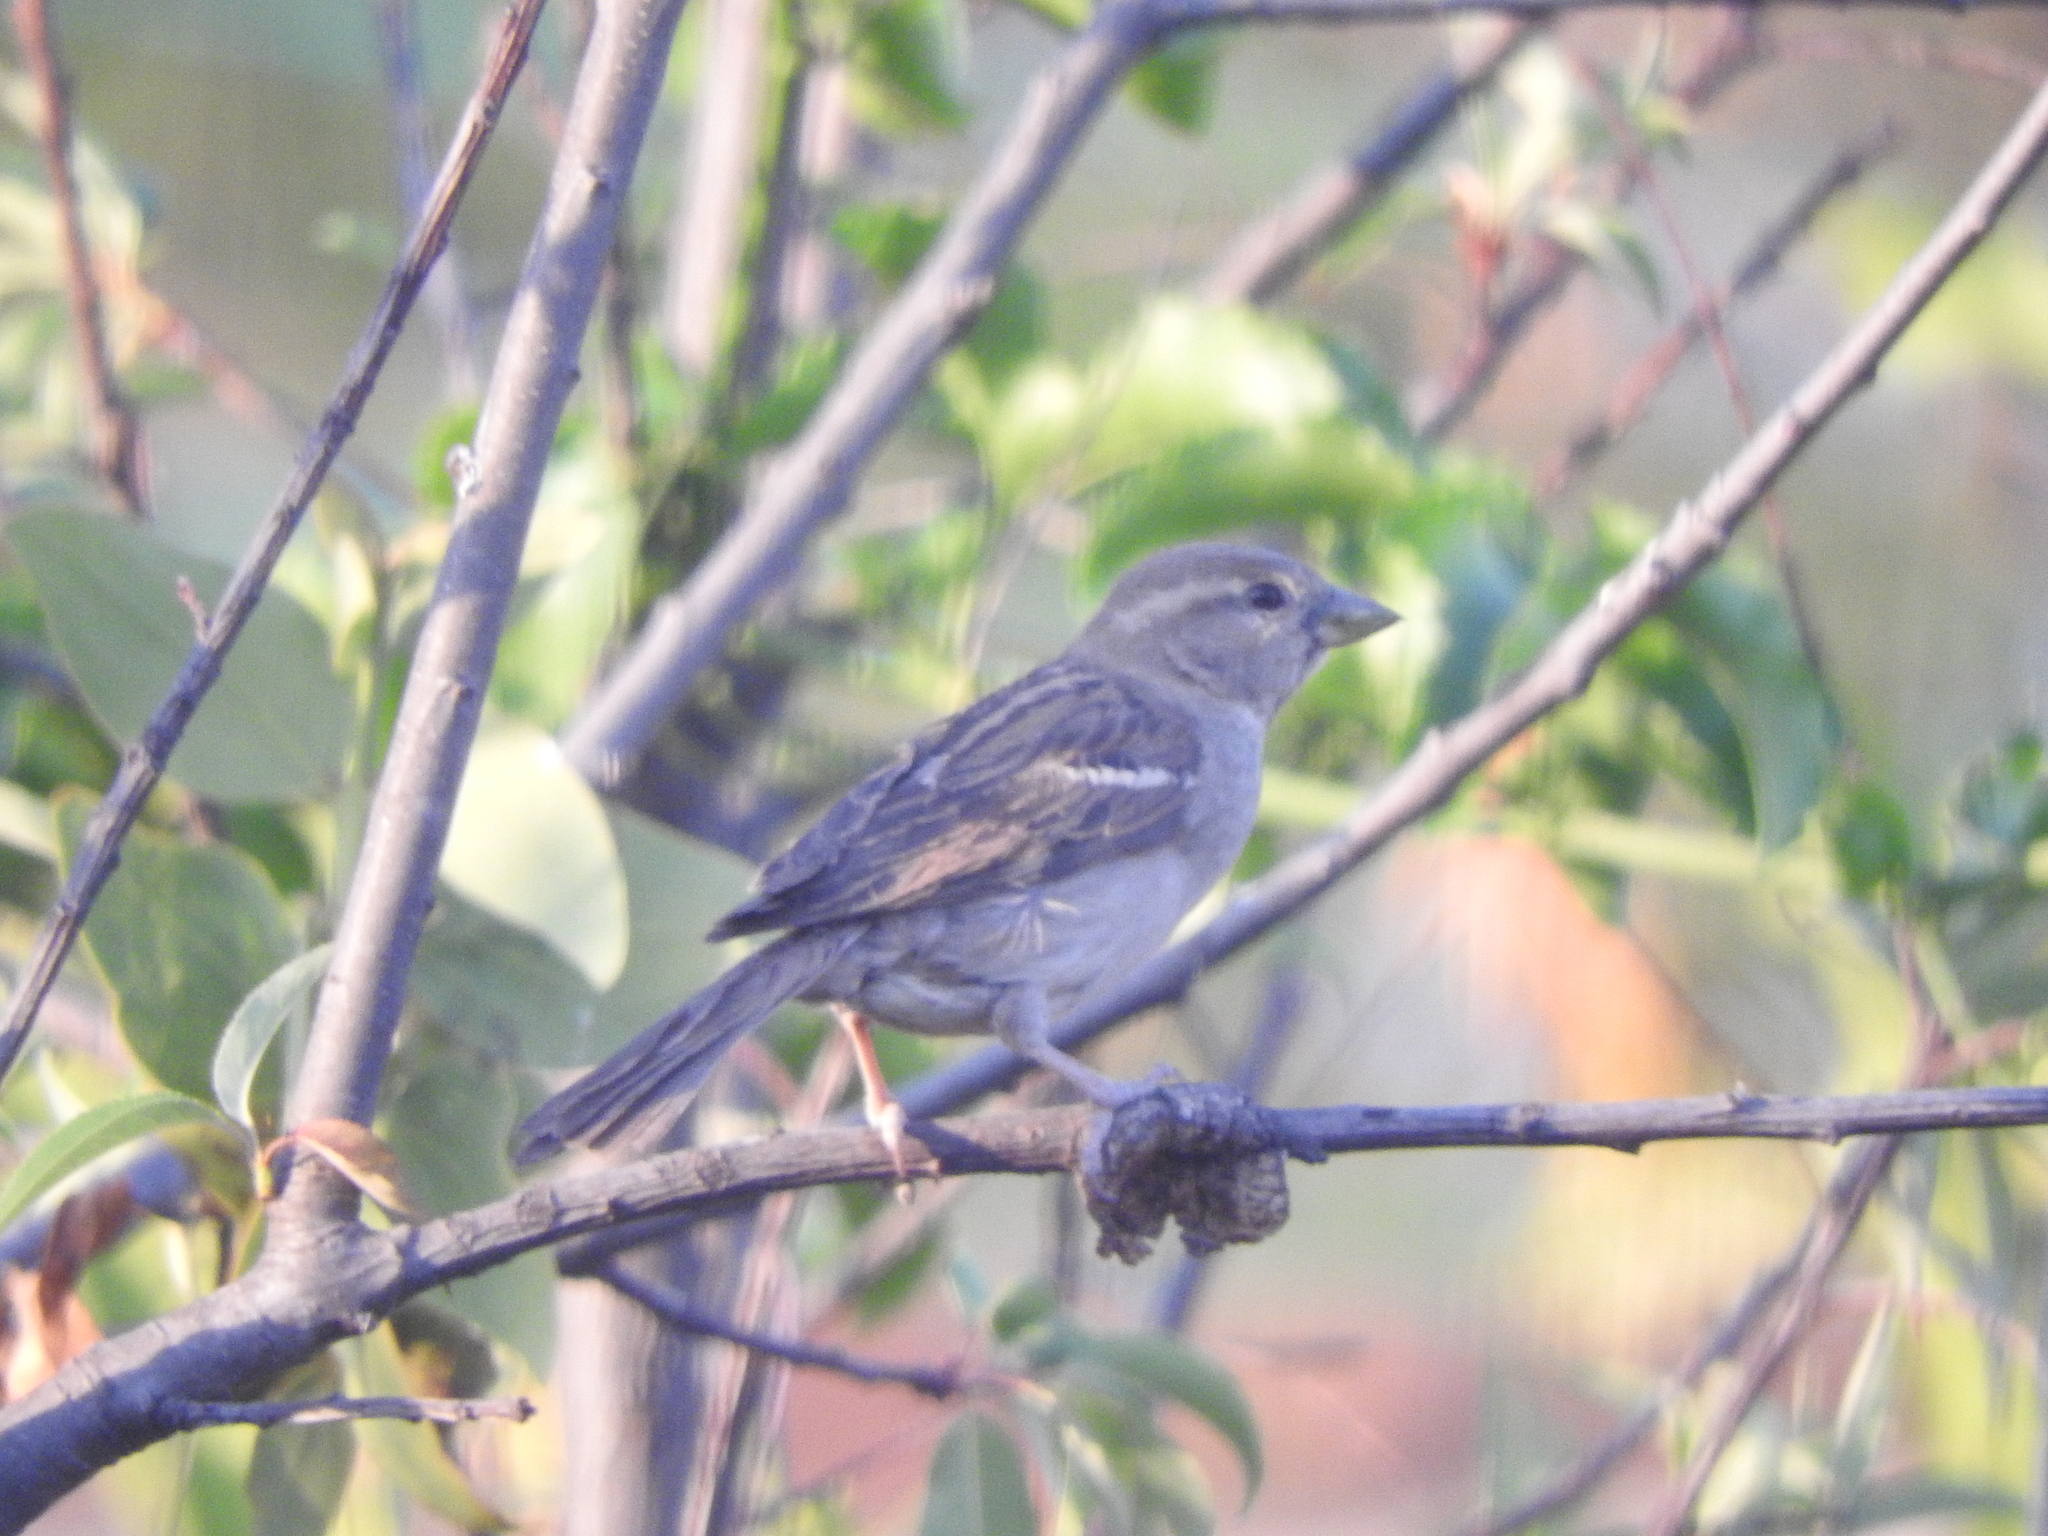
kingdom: Animalia
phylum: Chordata
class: Aves
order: Passeriformes
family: Passeridae
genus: Passer
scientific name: Passer domesticus
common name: House sparrow
